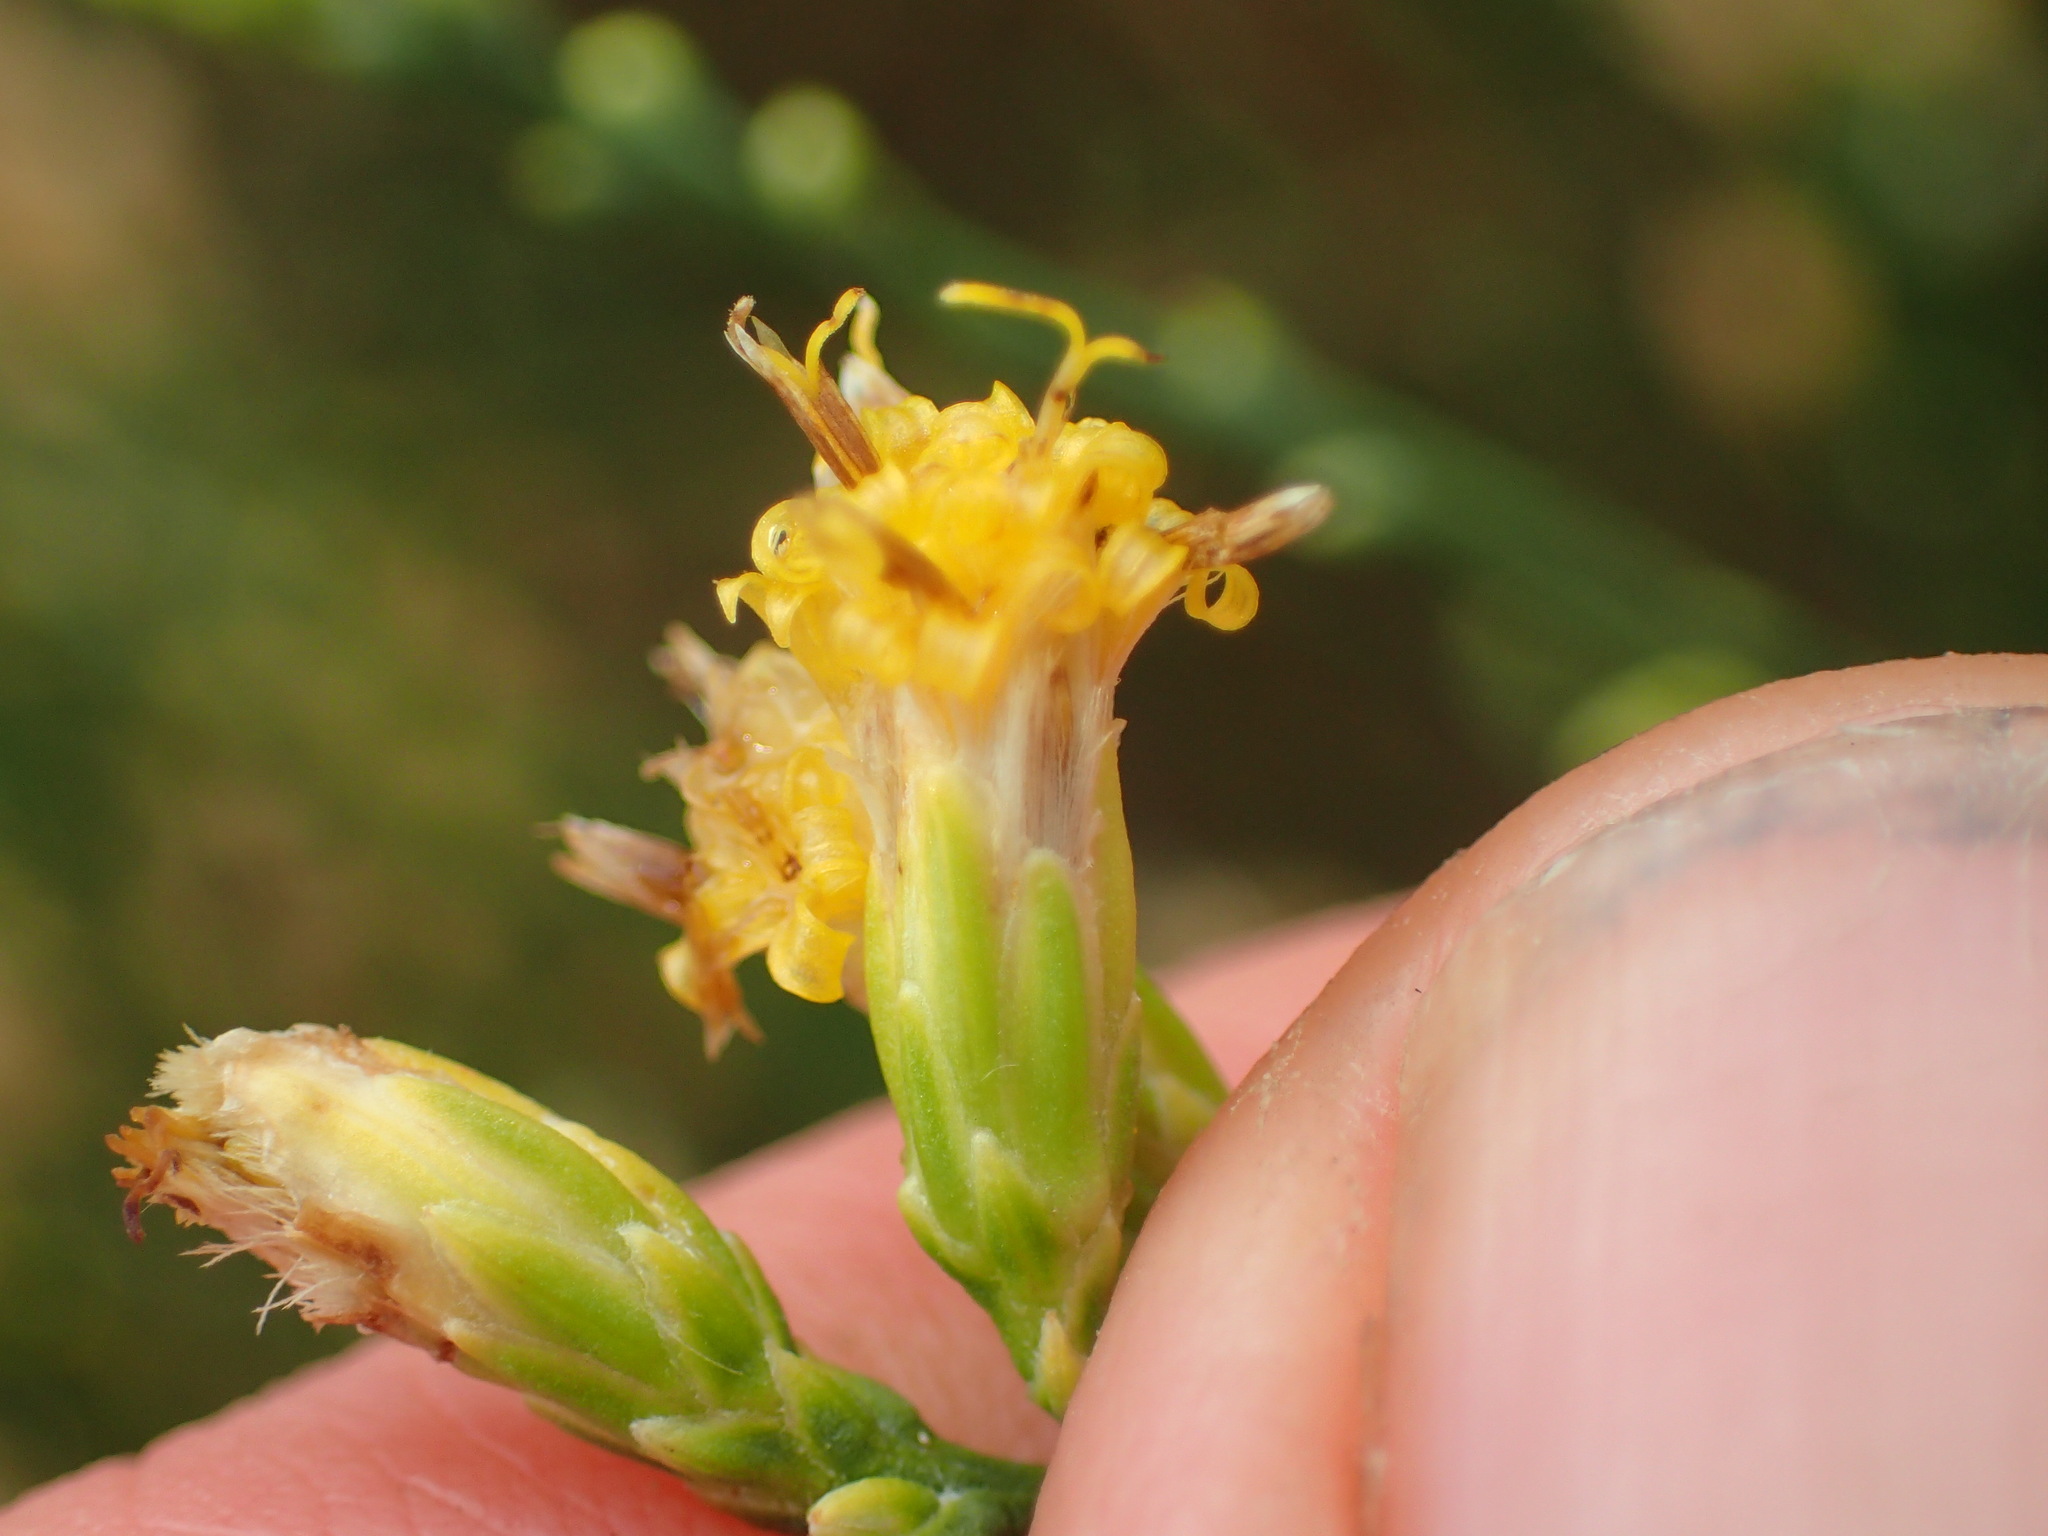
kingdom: Plantae
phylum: Tracheophyta
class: Magnoliopsida
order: Asterales
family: Asteraceae
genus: Lepidospartum
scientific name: Lepidospartum squamatum
